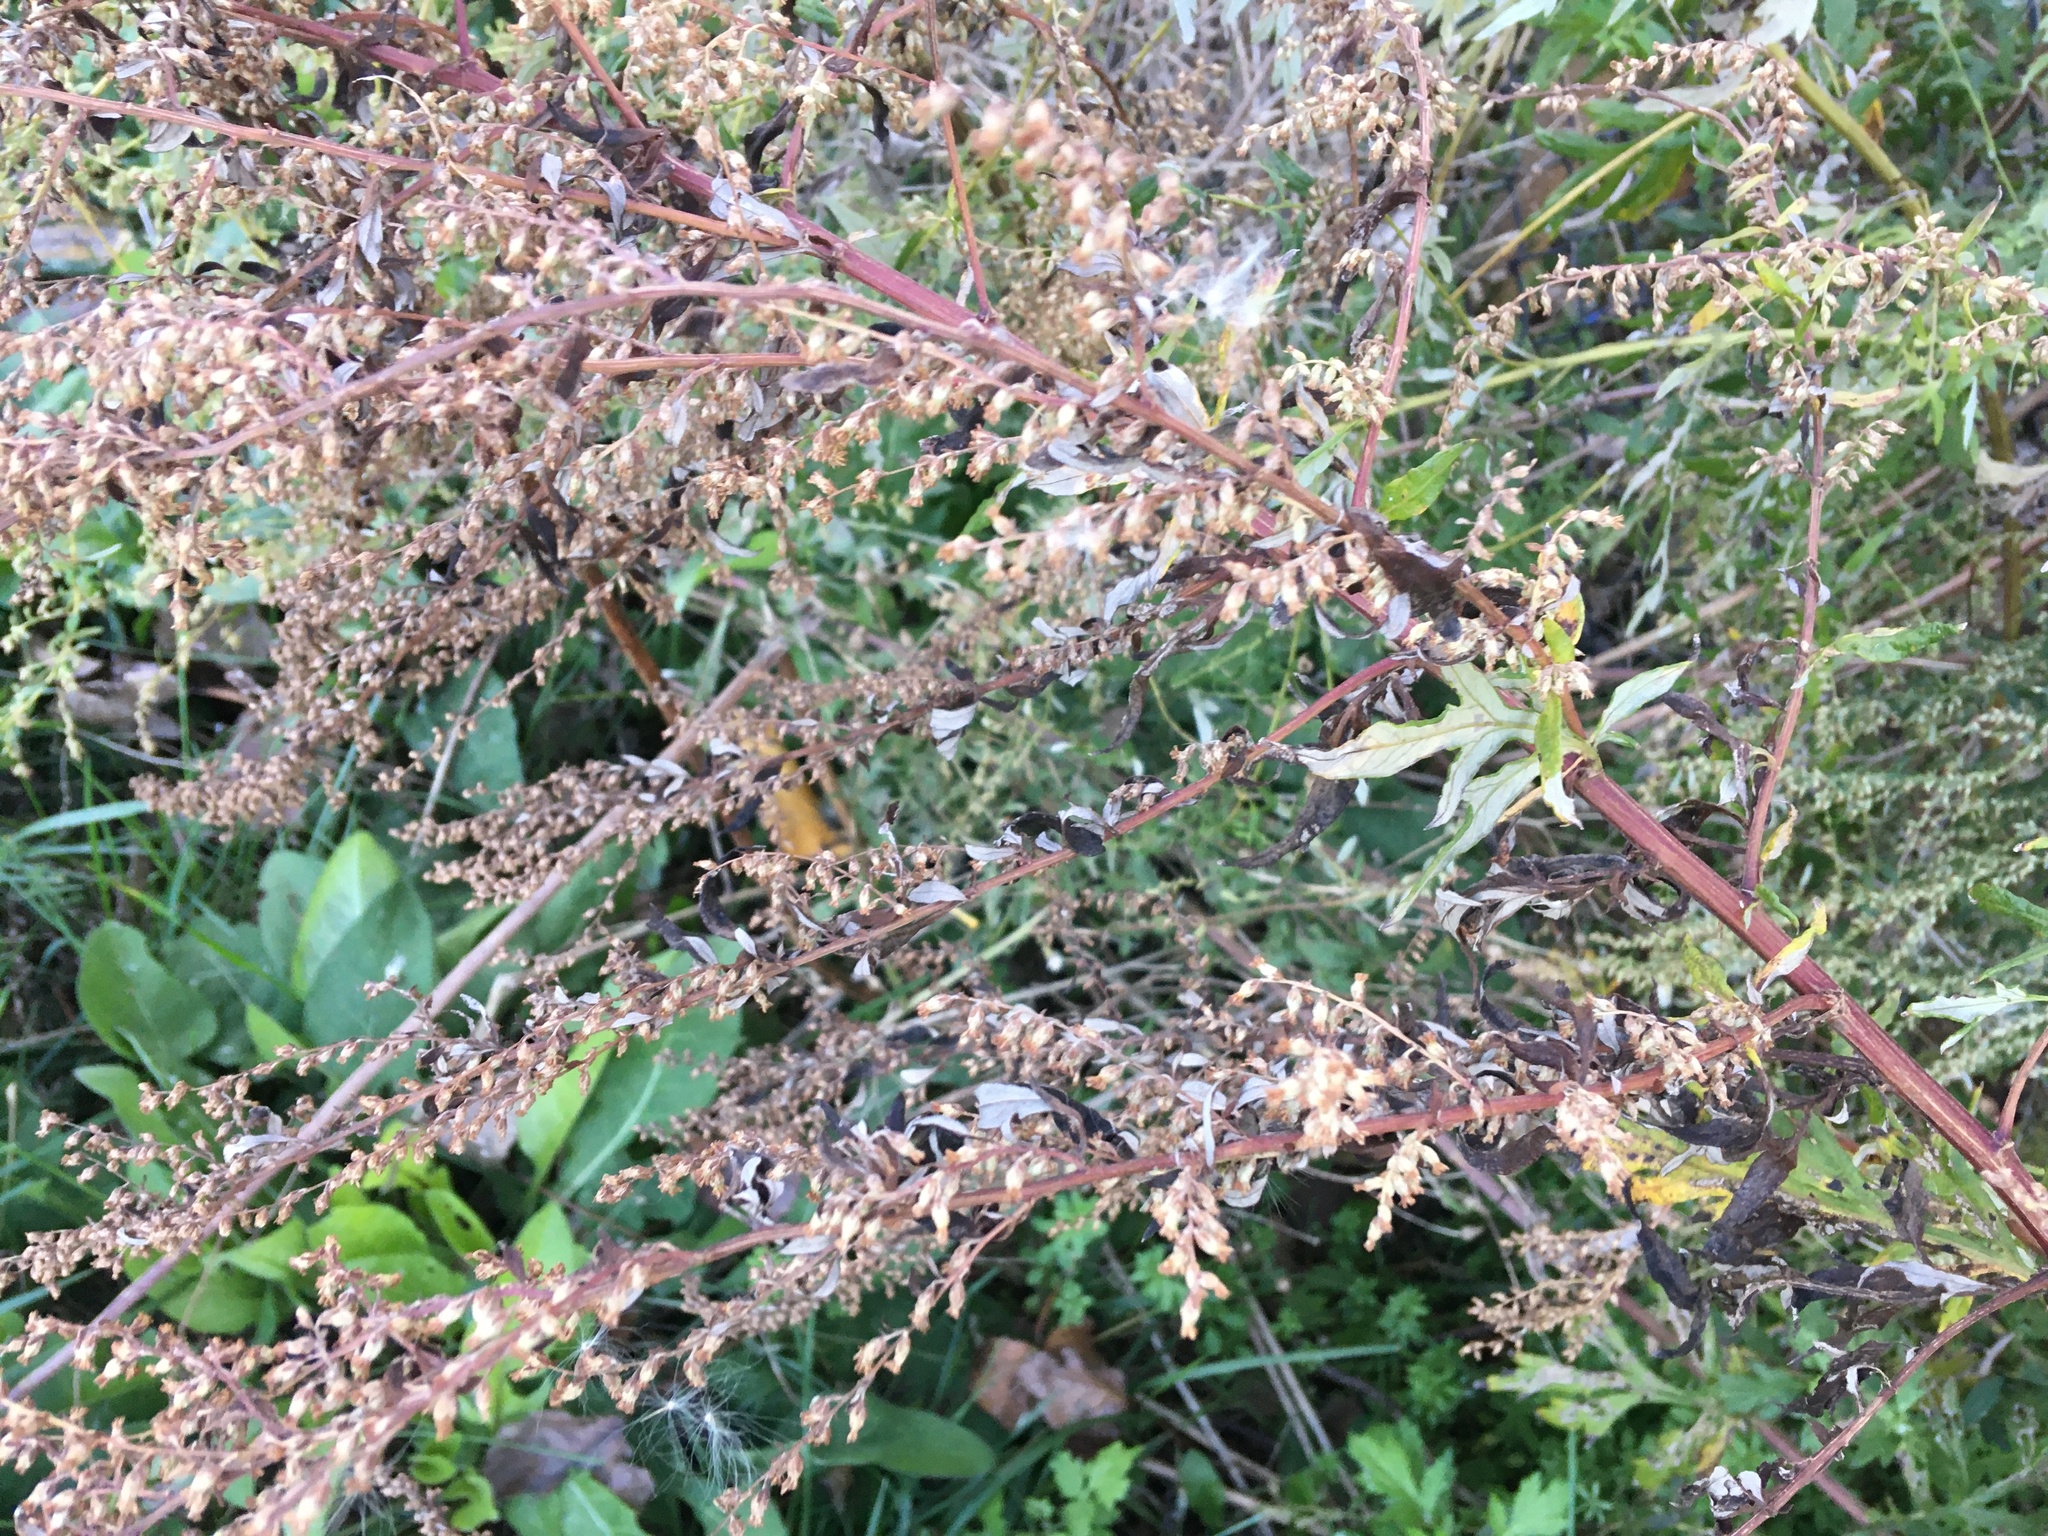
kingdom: Plantae
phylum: Tracheophyta
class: Magnoliopsida
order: Asterales
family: Asteraceae
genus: Artemisia
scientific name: Artemisia vulgaris
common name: Mugwort
